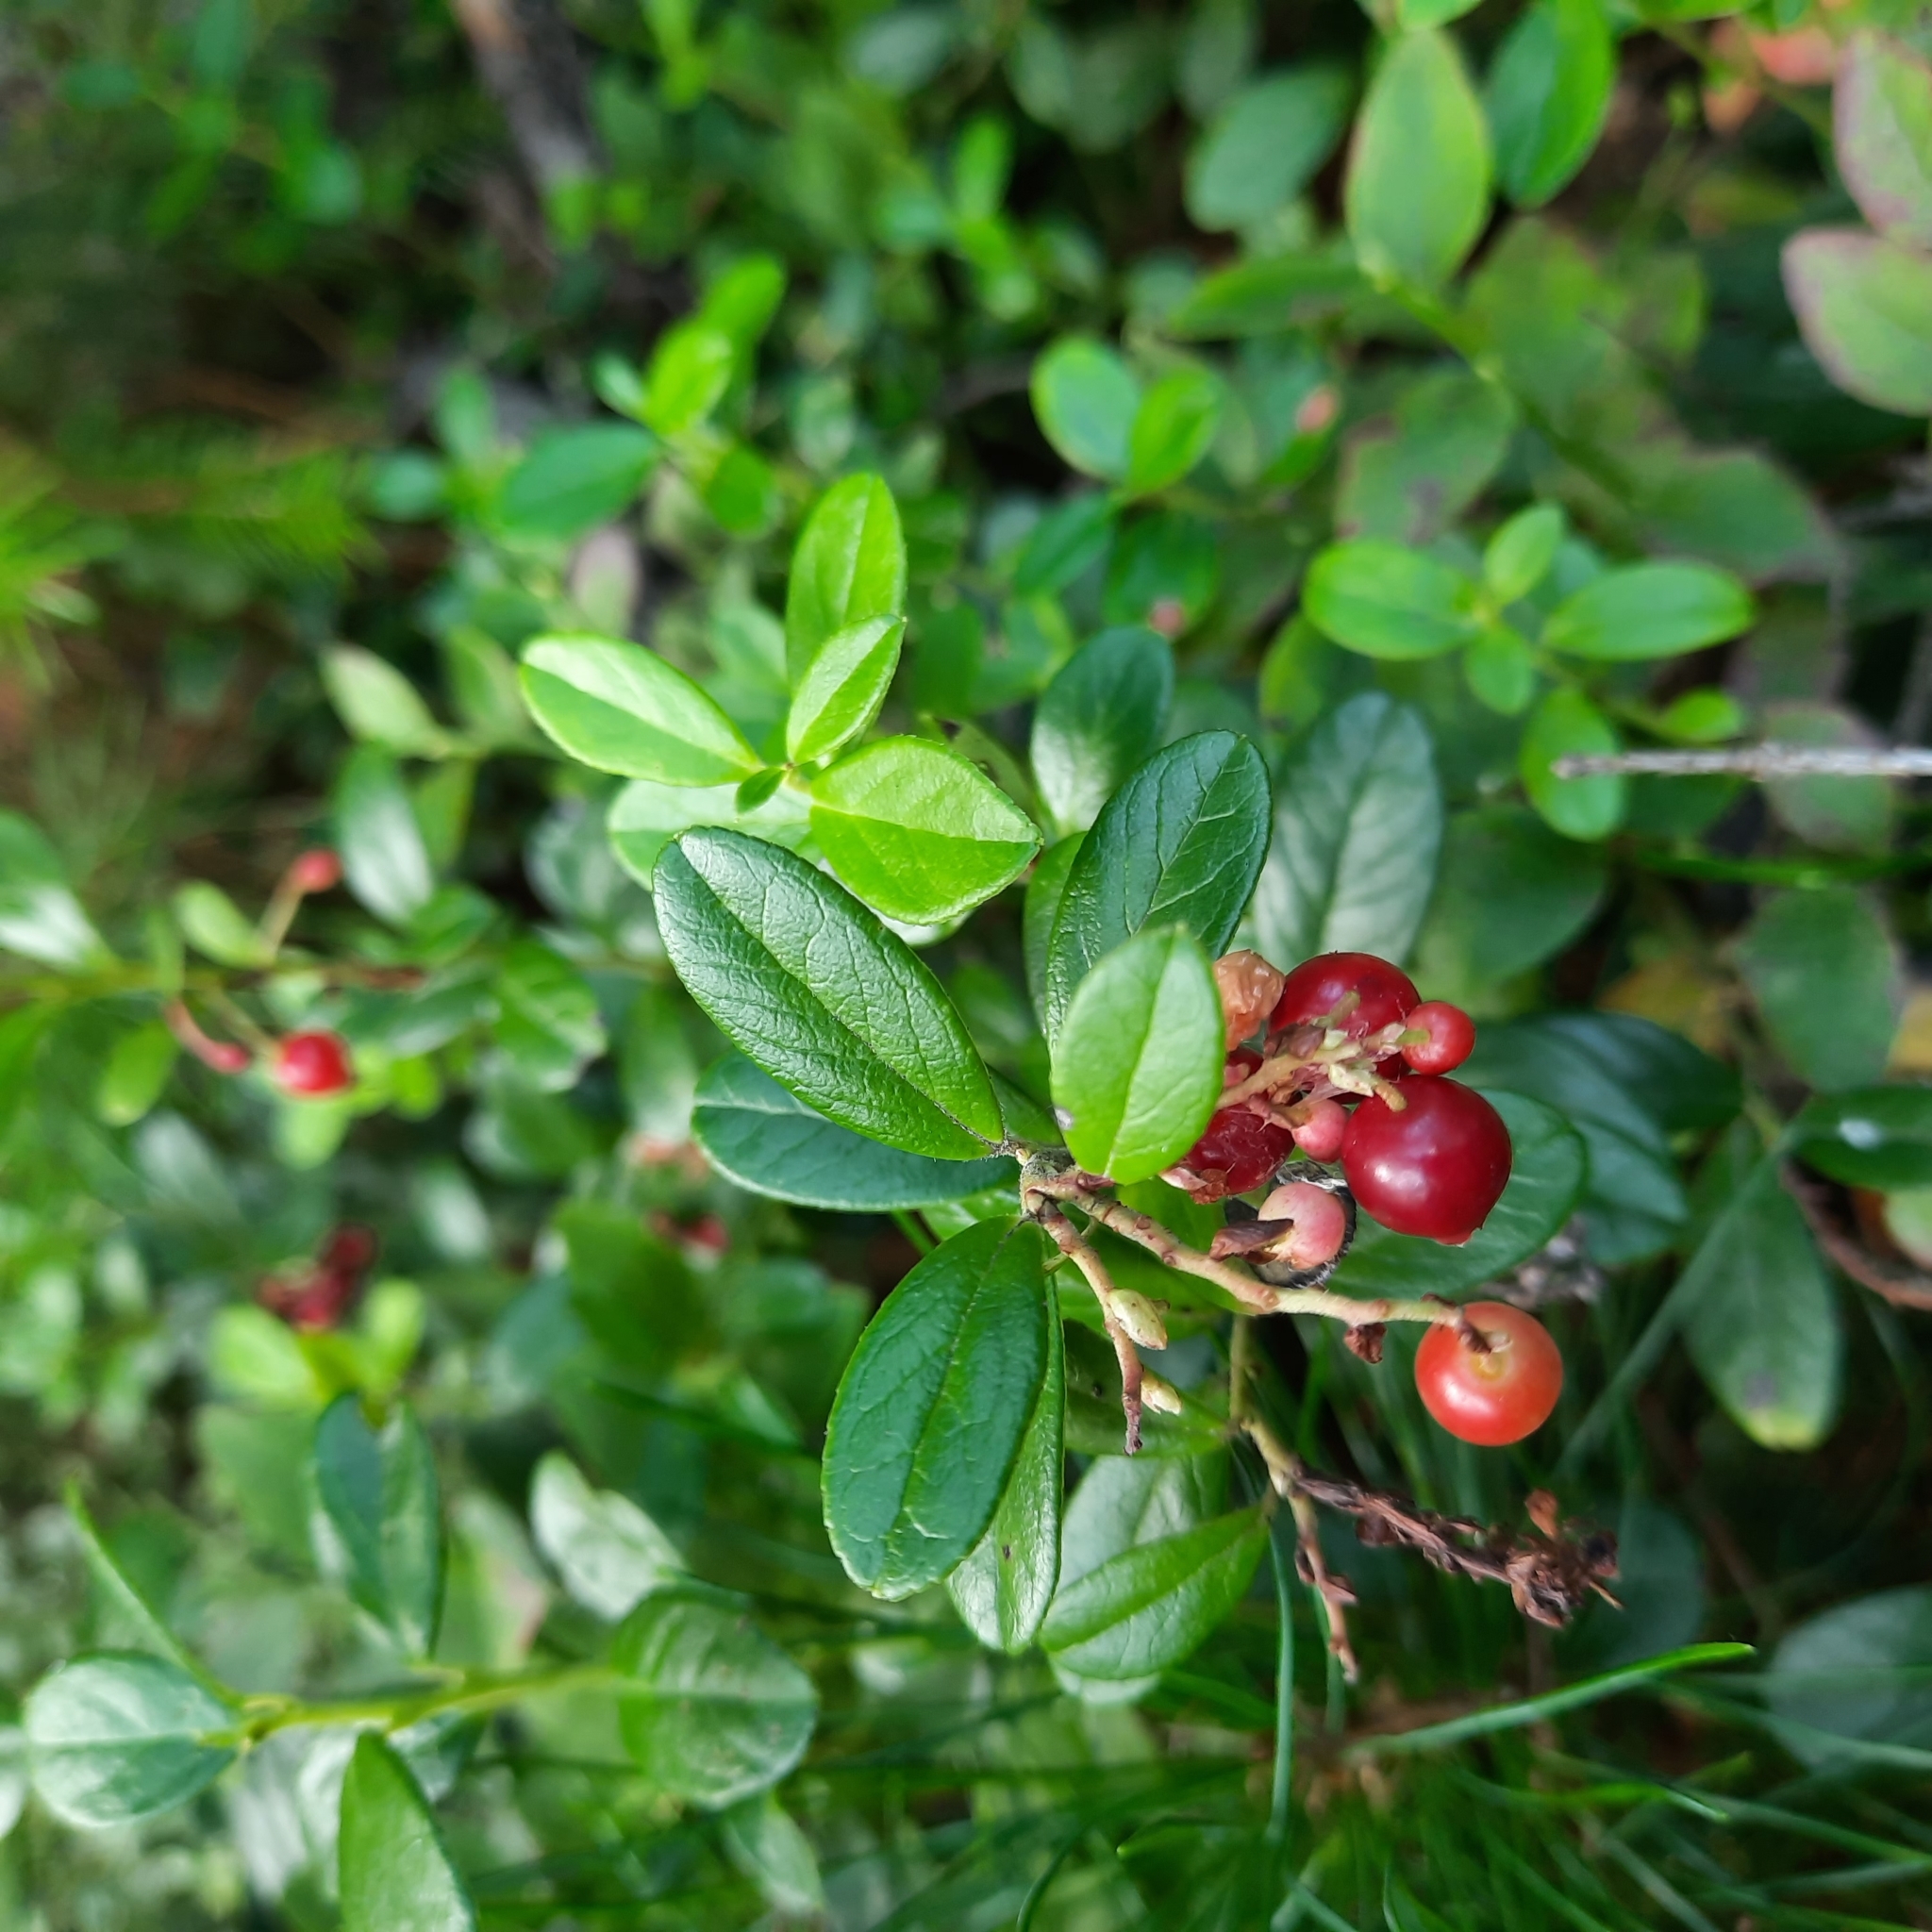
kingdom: Plantae
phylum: Tracheophyta
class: Magnoliopsida
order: Ericales
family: Ericaceae
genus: Vaccinium
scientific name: Vaccinium vitis-idaea
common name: Cowberry
